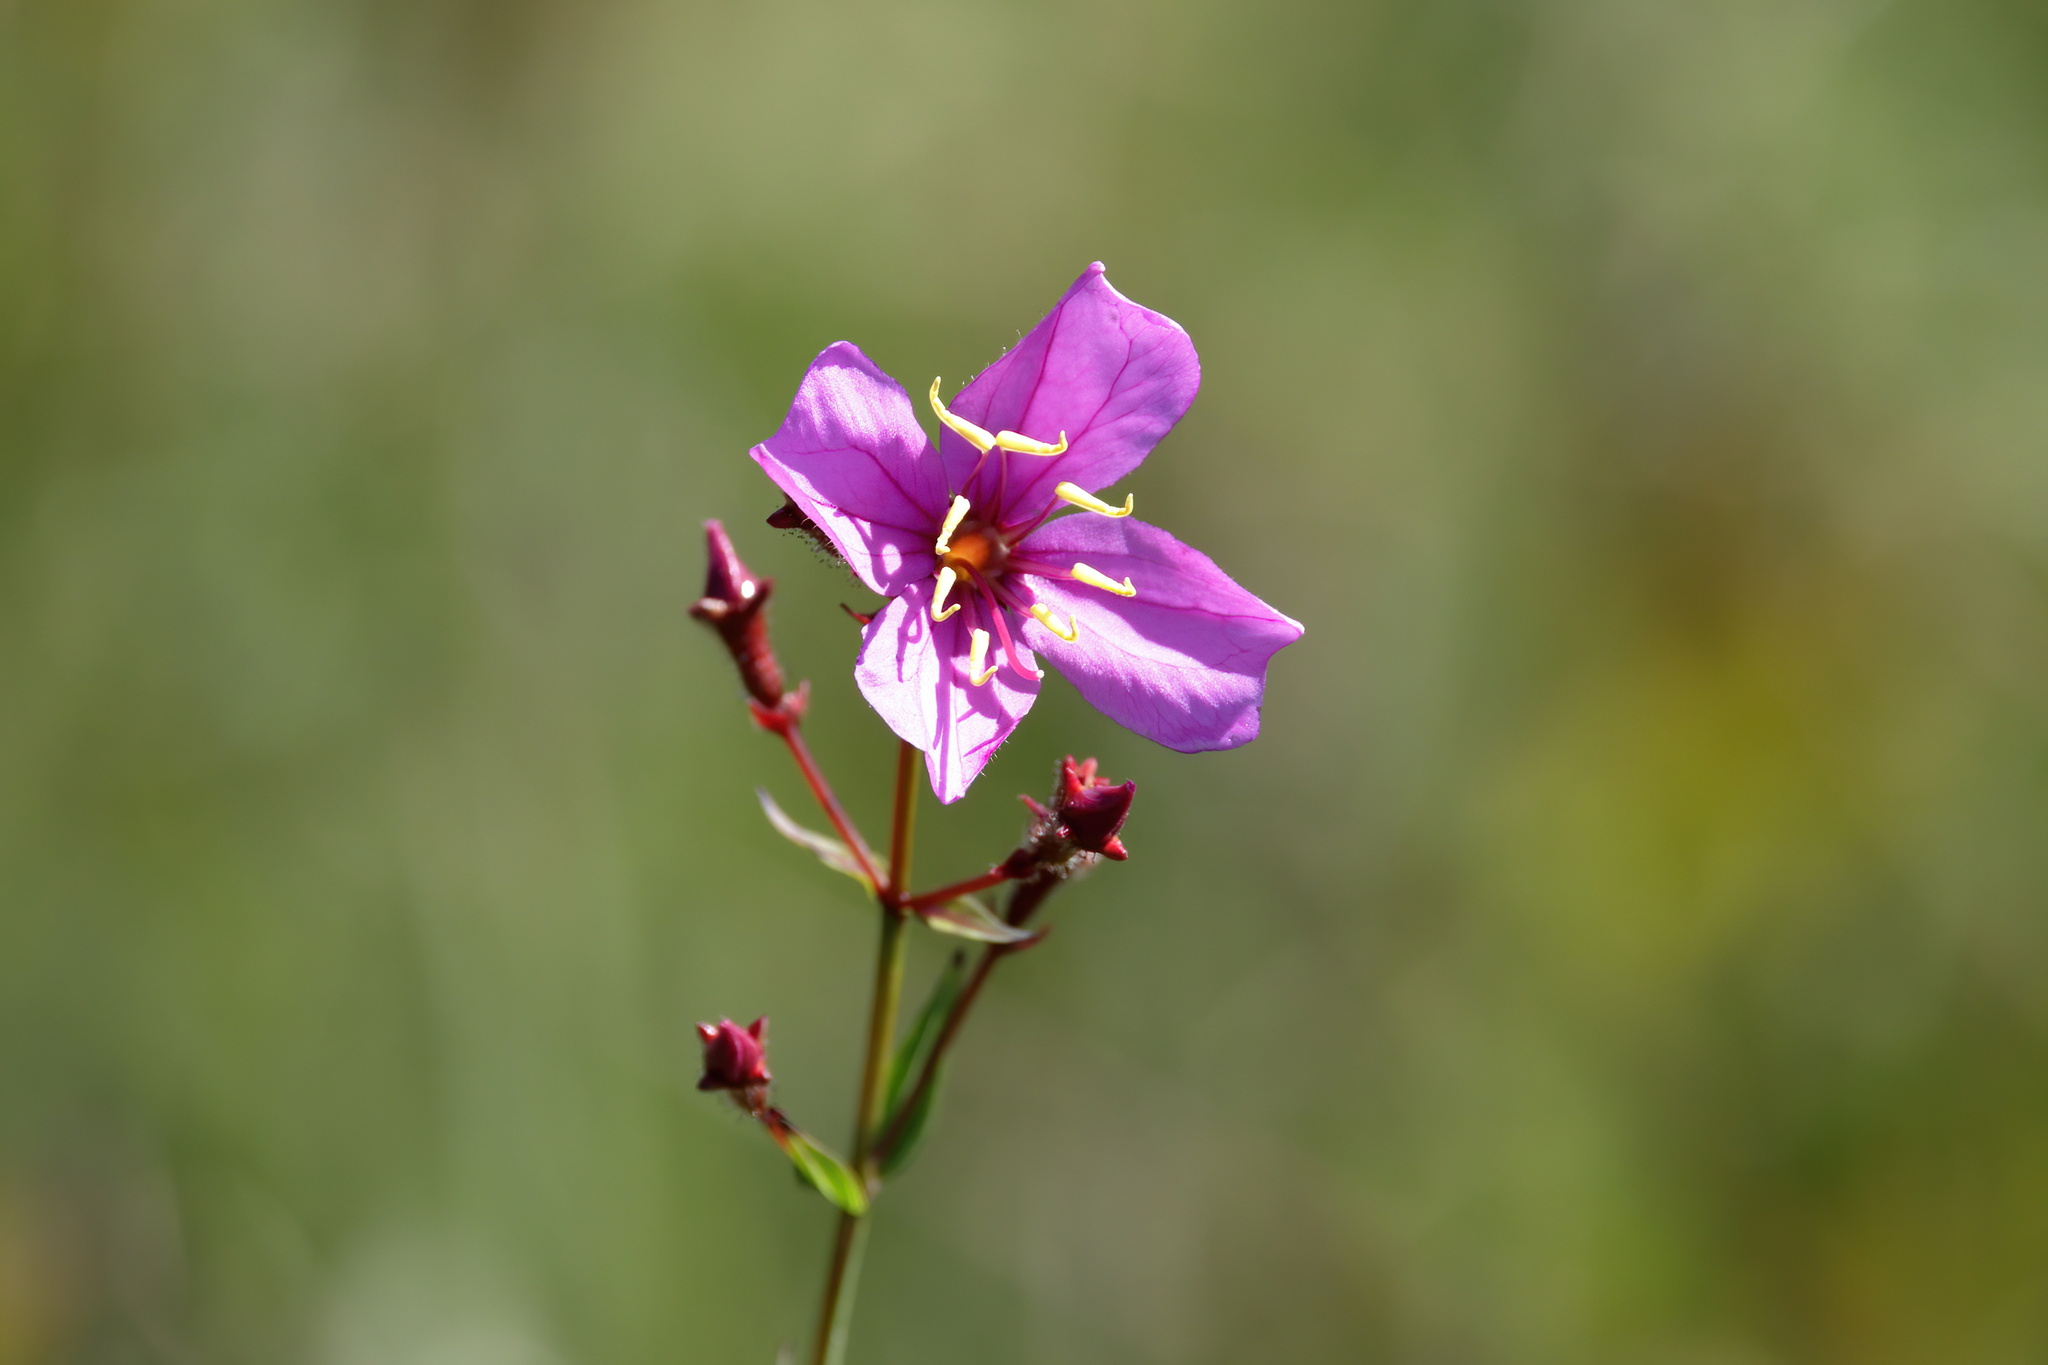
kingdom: Plantae
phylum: Tracheophyta
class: Magnoliopsida
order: Myrtales
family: Melastomataceae
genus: Rhexia
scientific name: Rhexia alifanus
